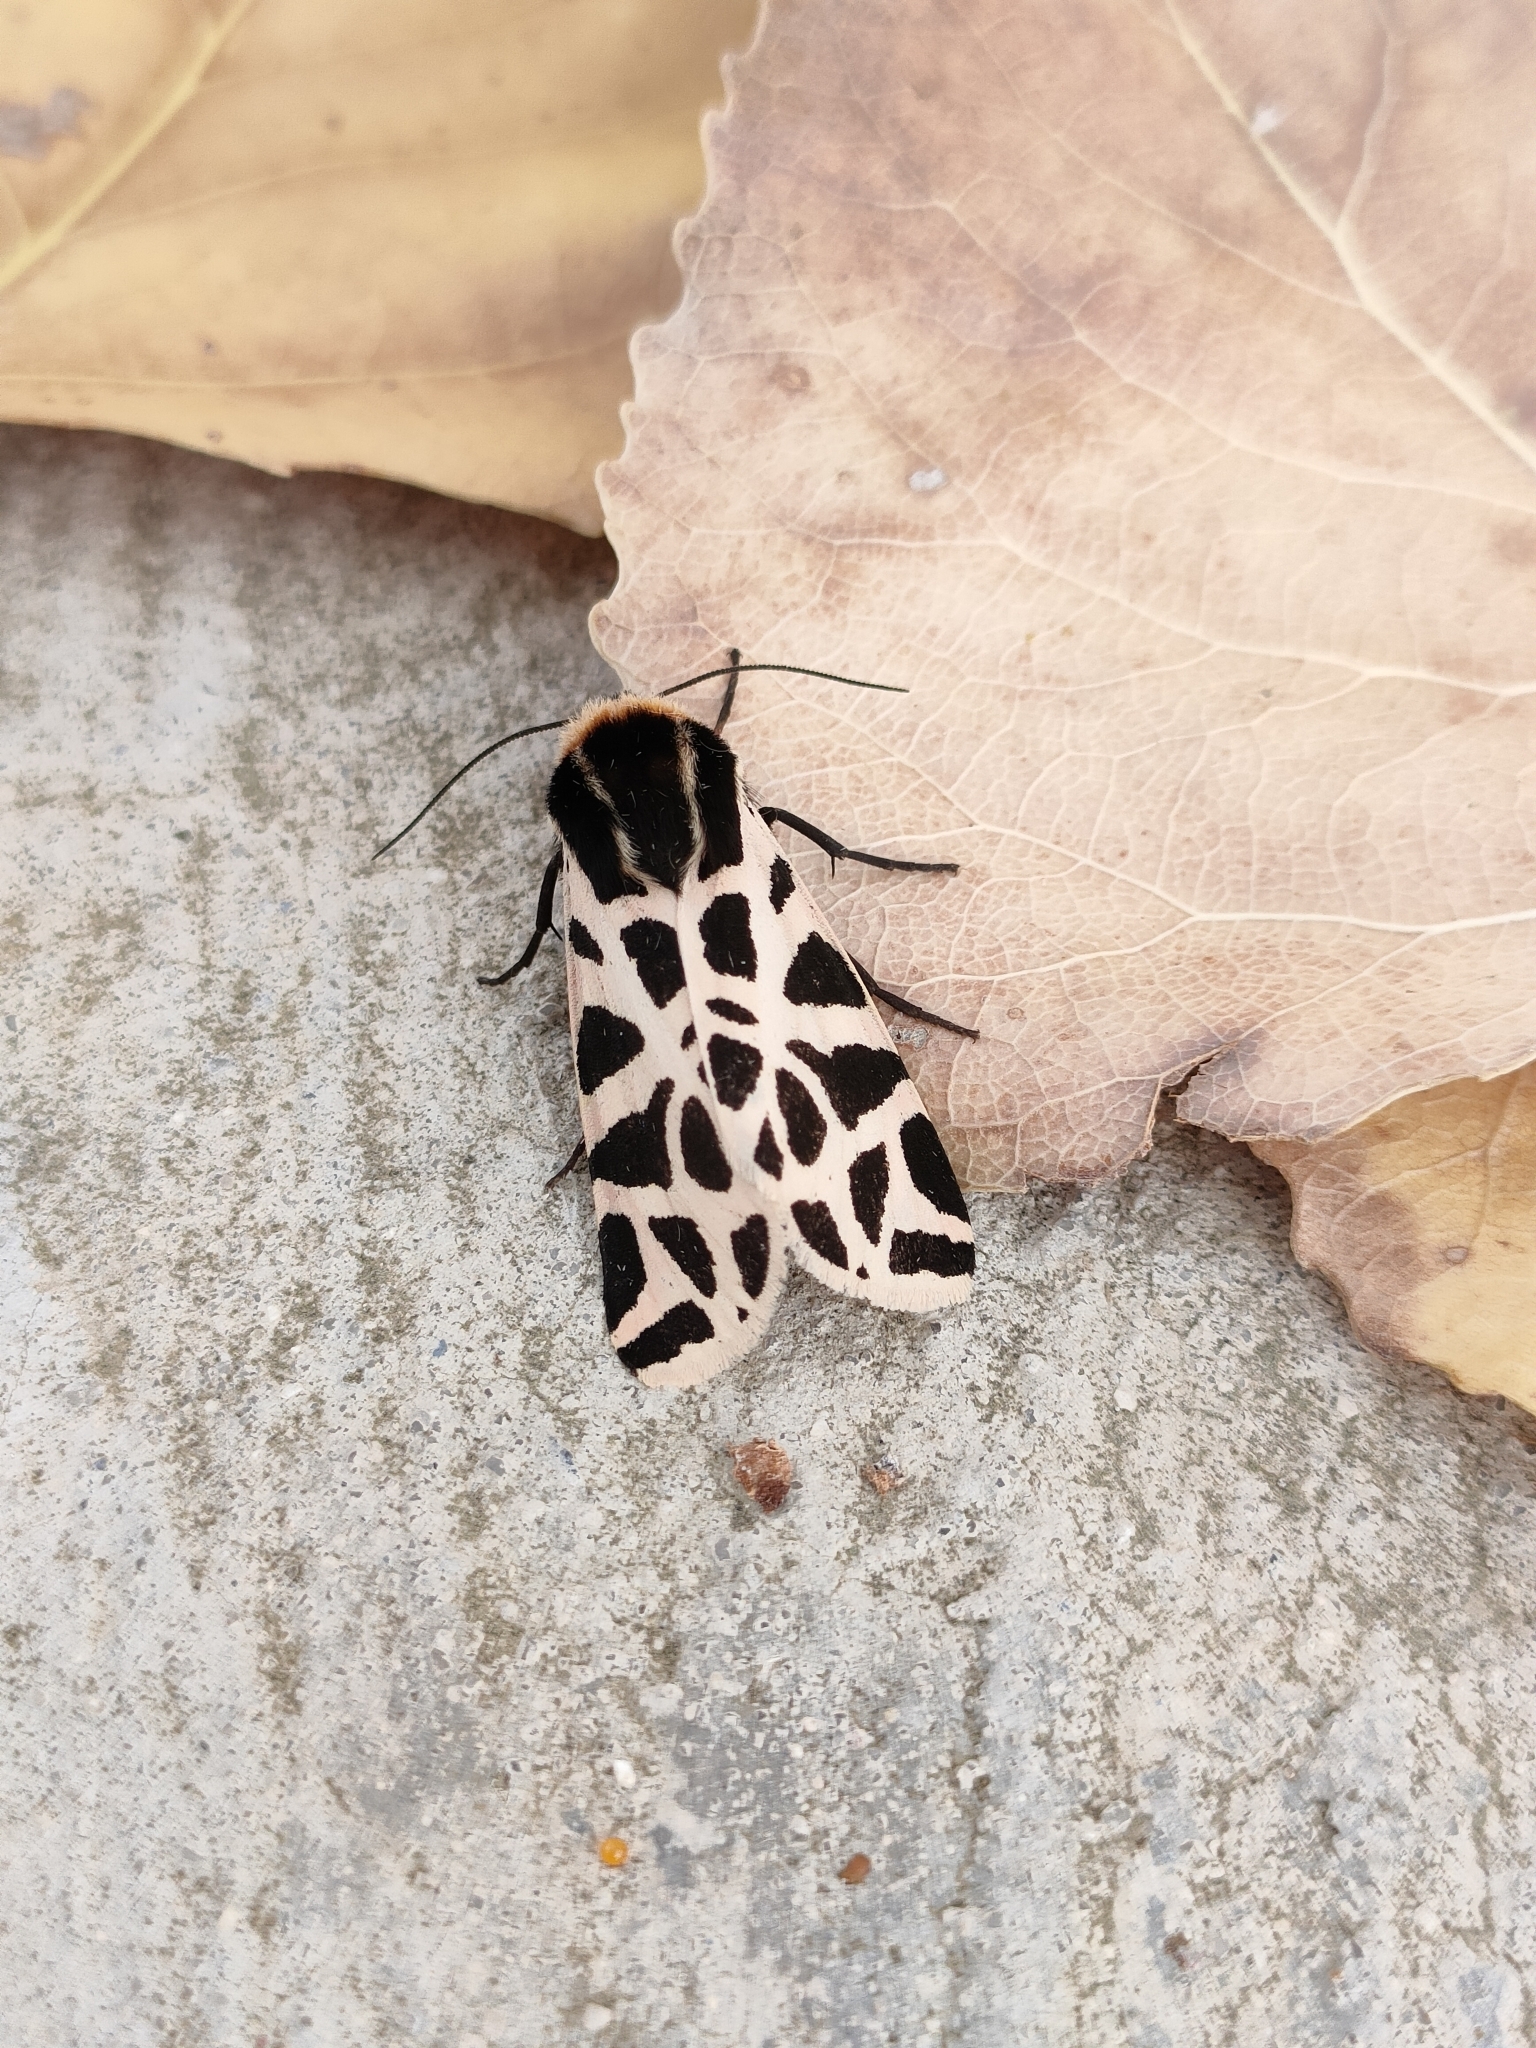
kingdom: Animalia
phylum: Arthropoda
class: Insecta
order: Lepidoptera
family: Erebidae
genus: Cymbalophora
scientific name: Cymbalophora pudica
